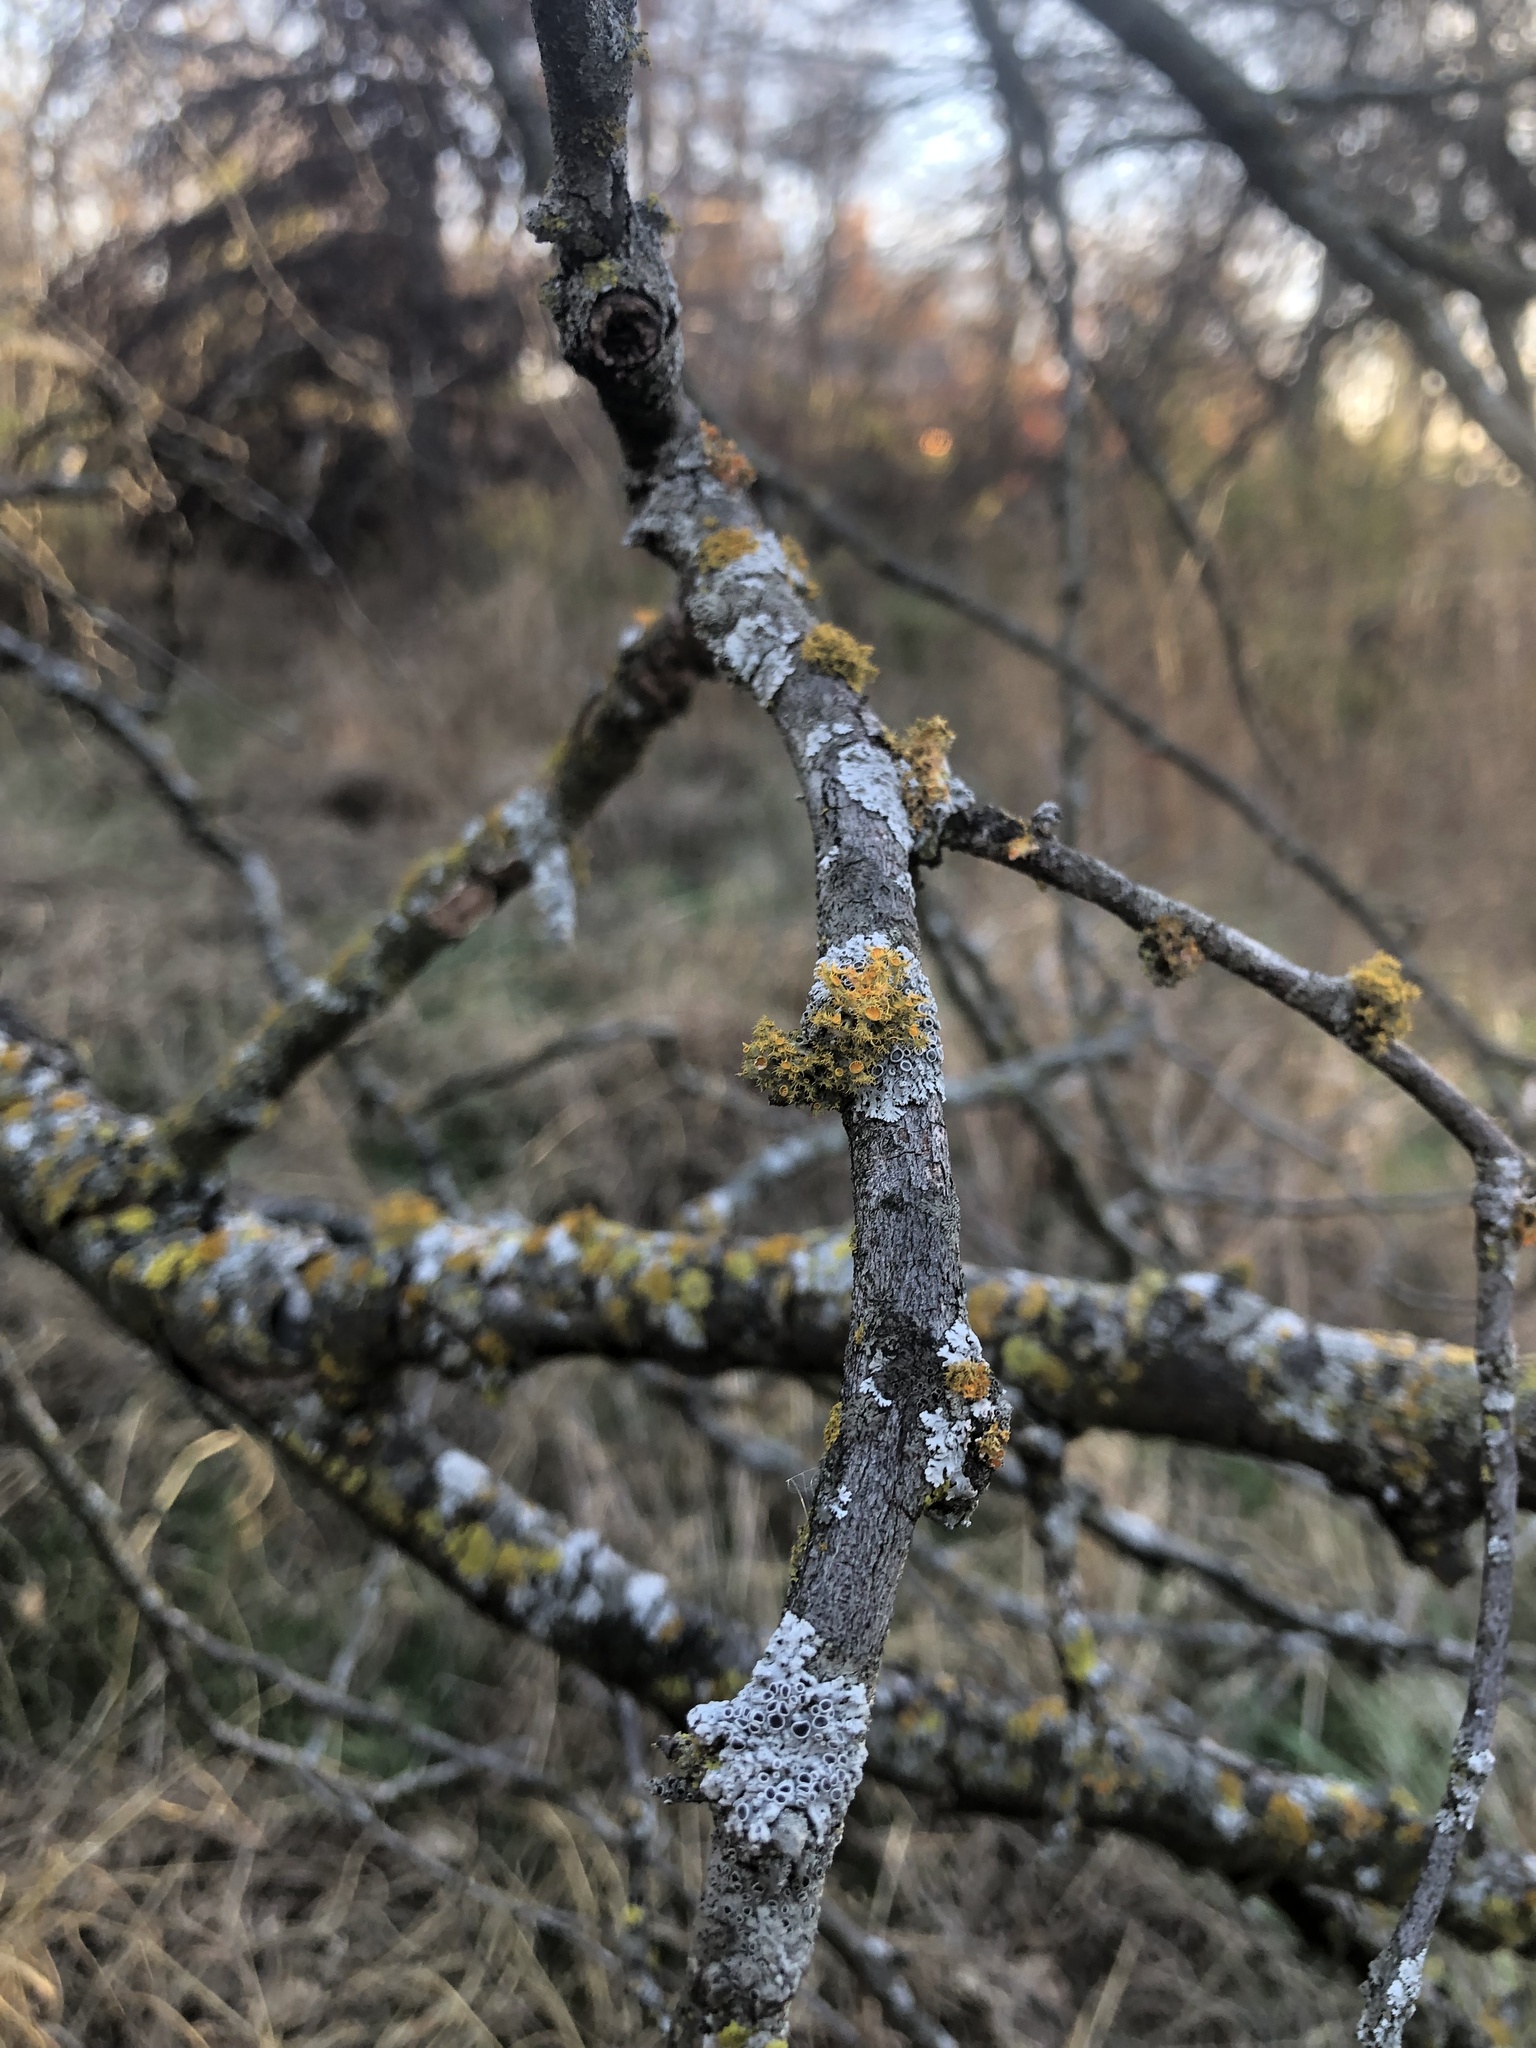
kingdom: Fungi
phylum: Ascomycota
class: Lecanoromycetes
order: Teloschistales
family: Teloschistaceae
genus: Niorma
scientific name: Niorma chrysophthalma
